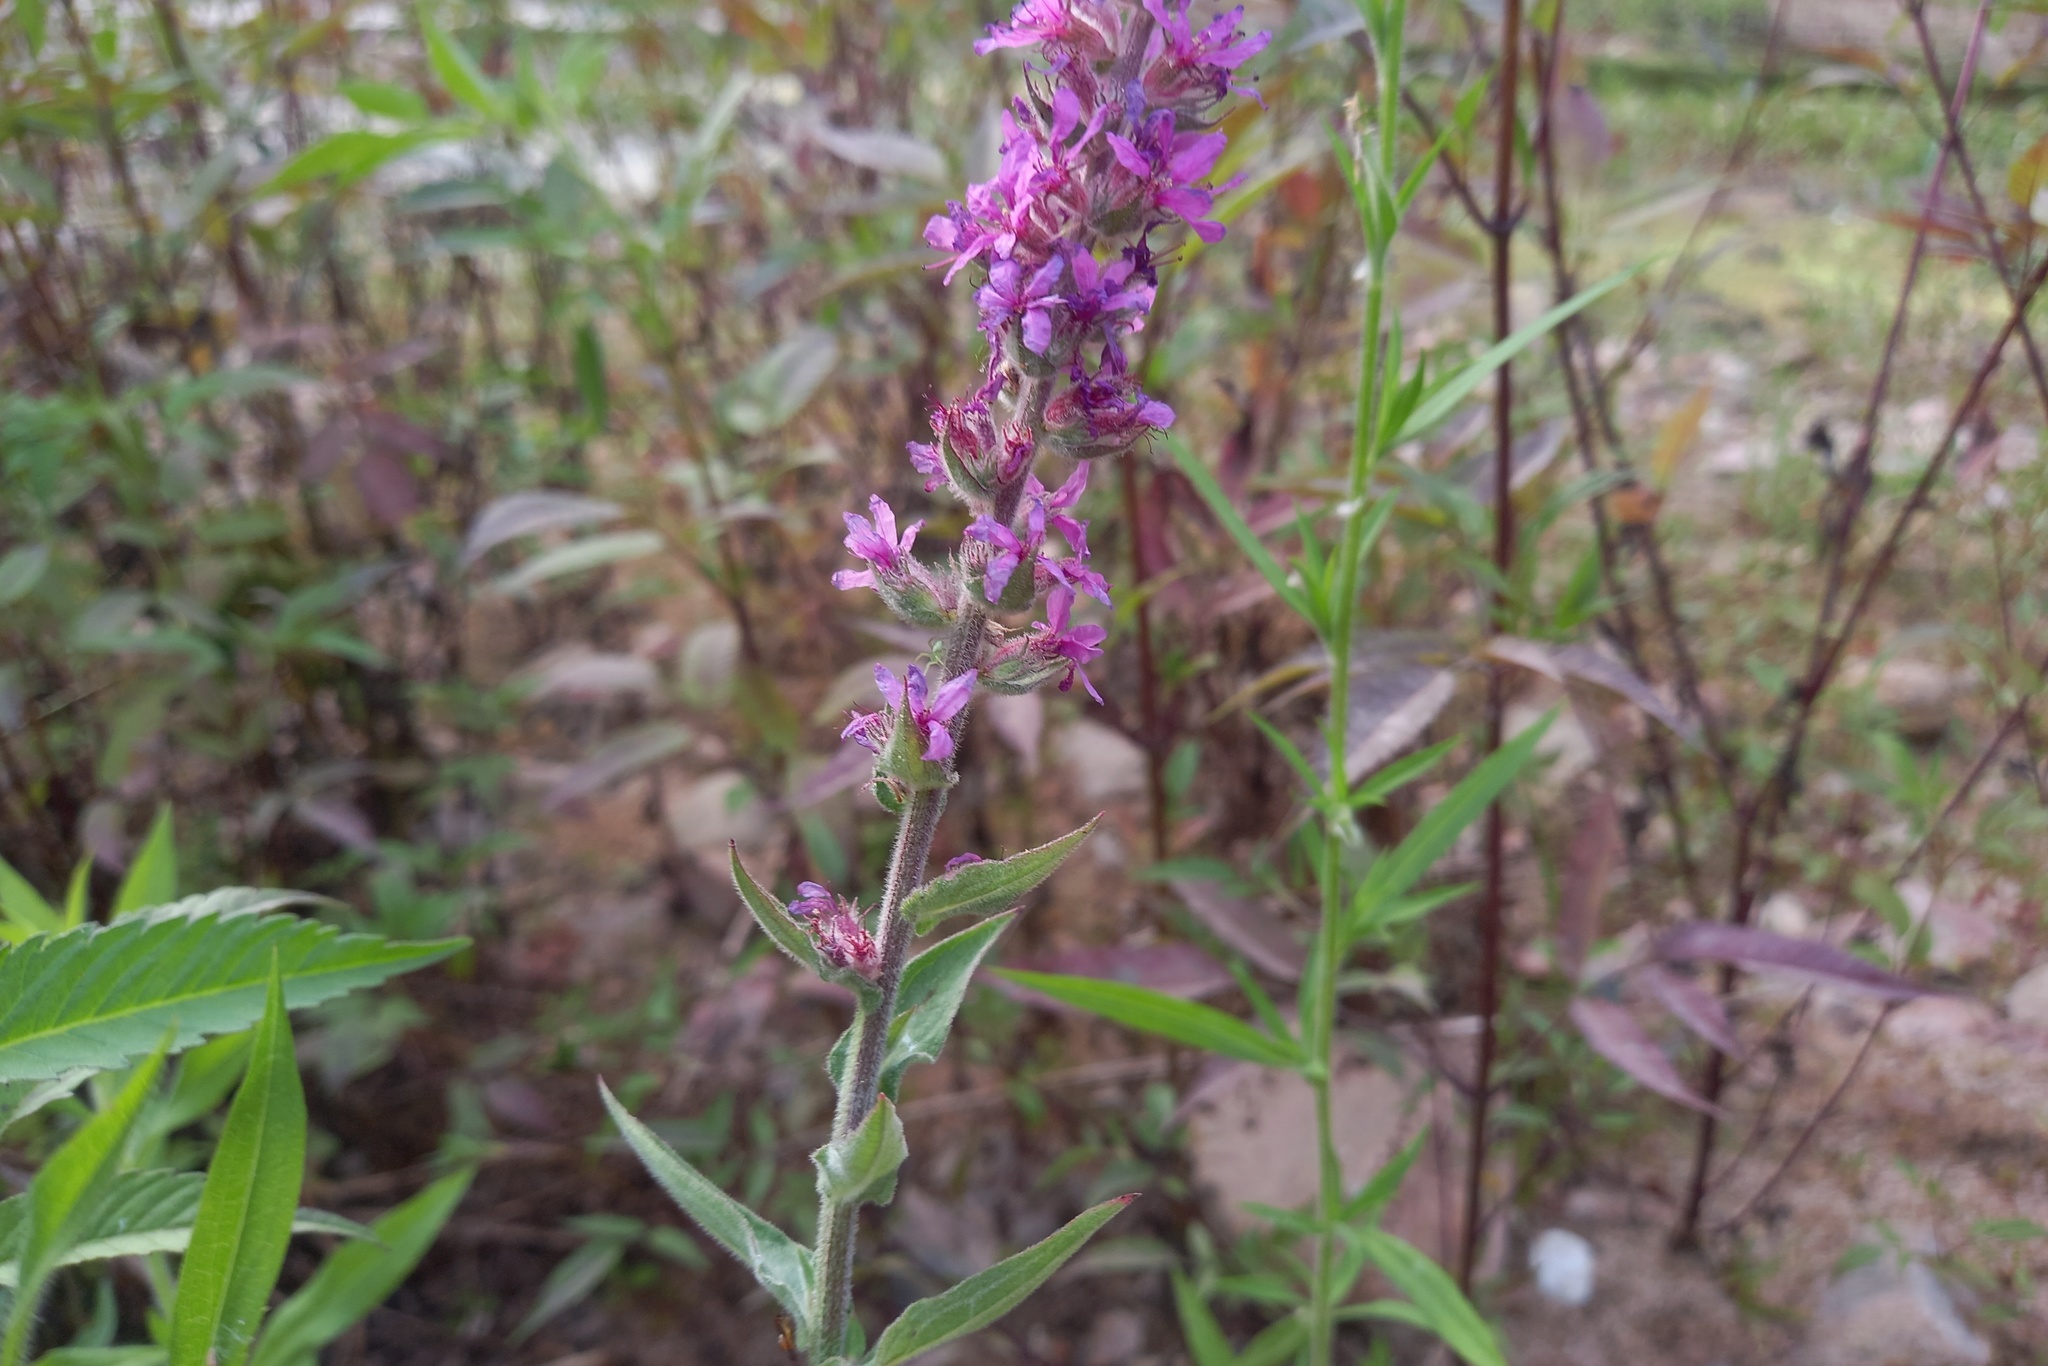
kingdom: Plantae
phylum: Tracheophyta
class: Magnoliopsida
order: Myrtales
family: Lythraceae
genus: Lythrum
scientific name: Lythrum salicaria
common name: Purple loosestrife
